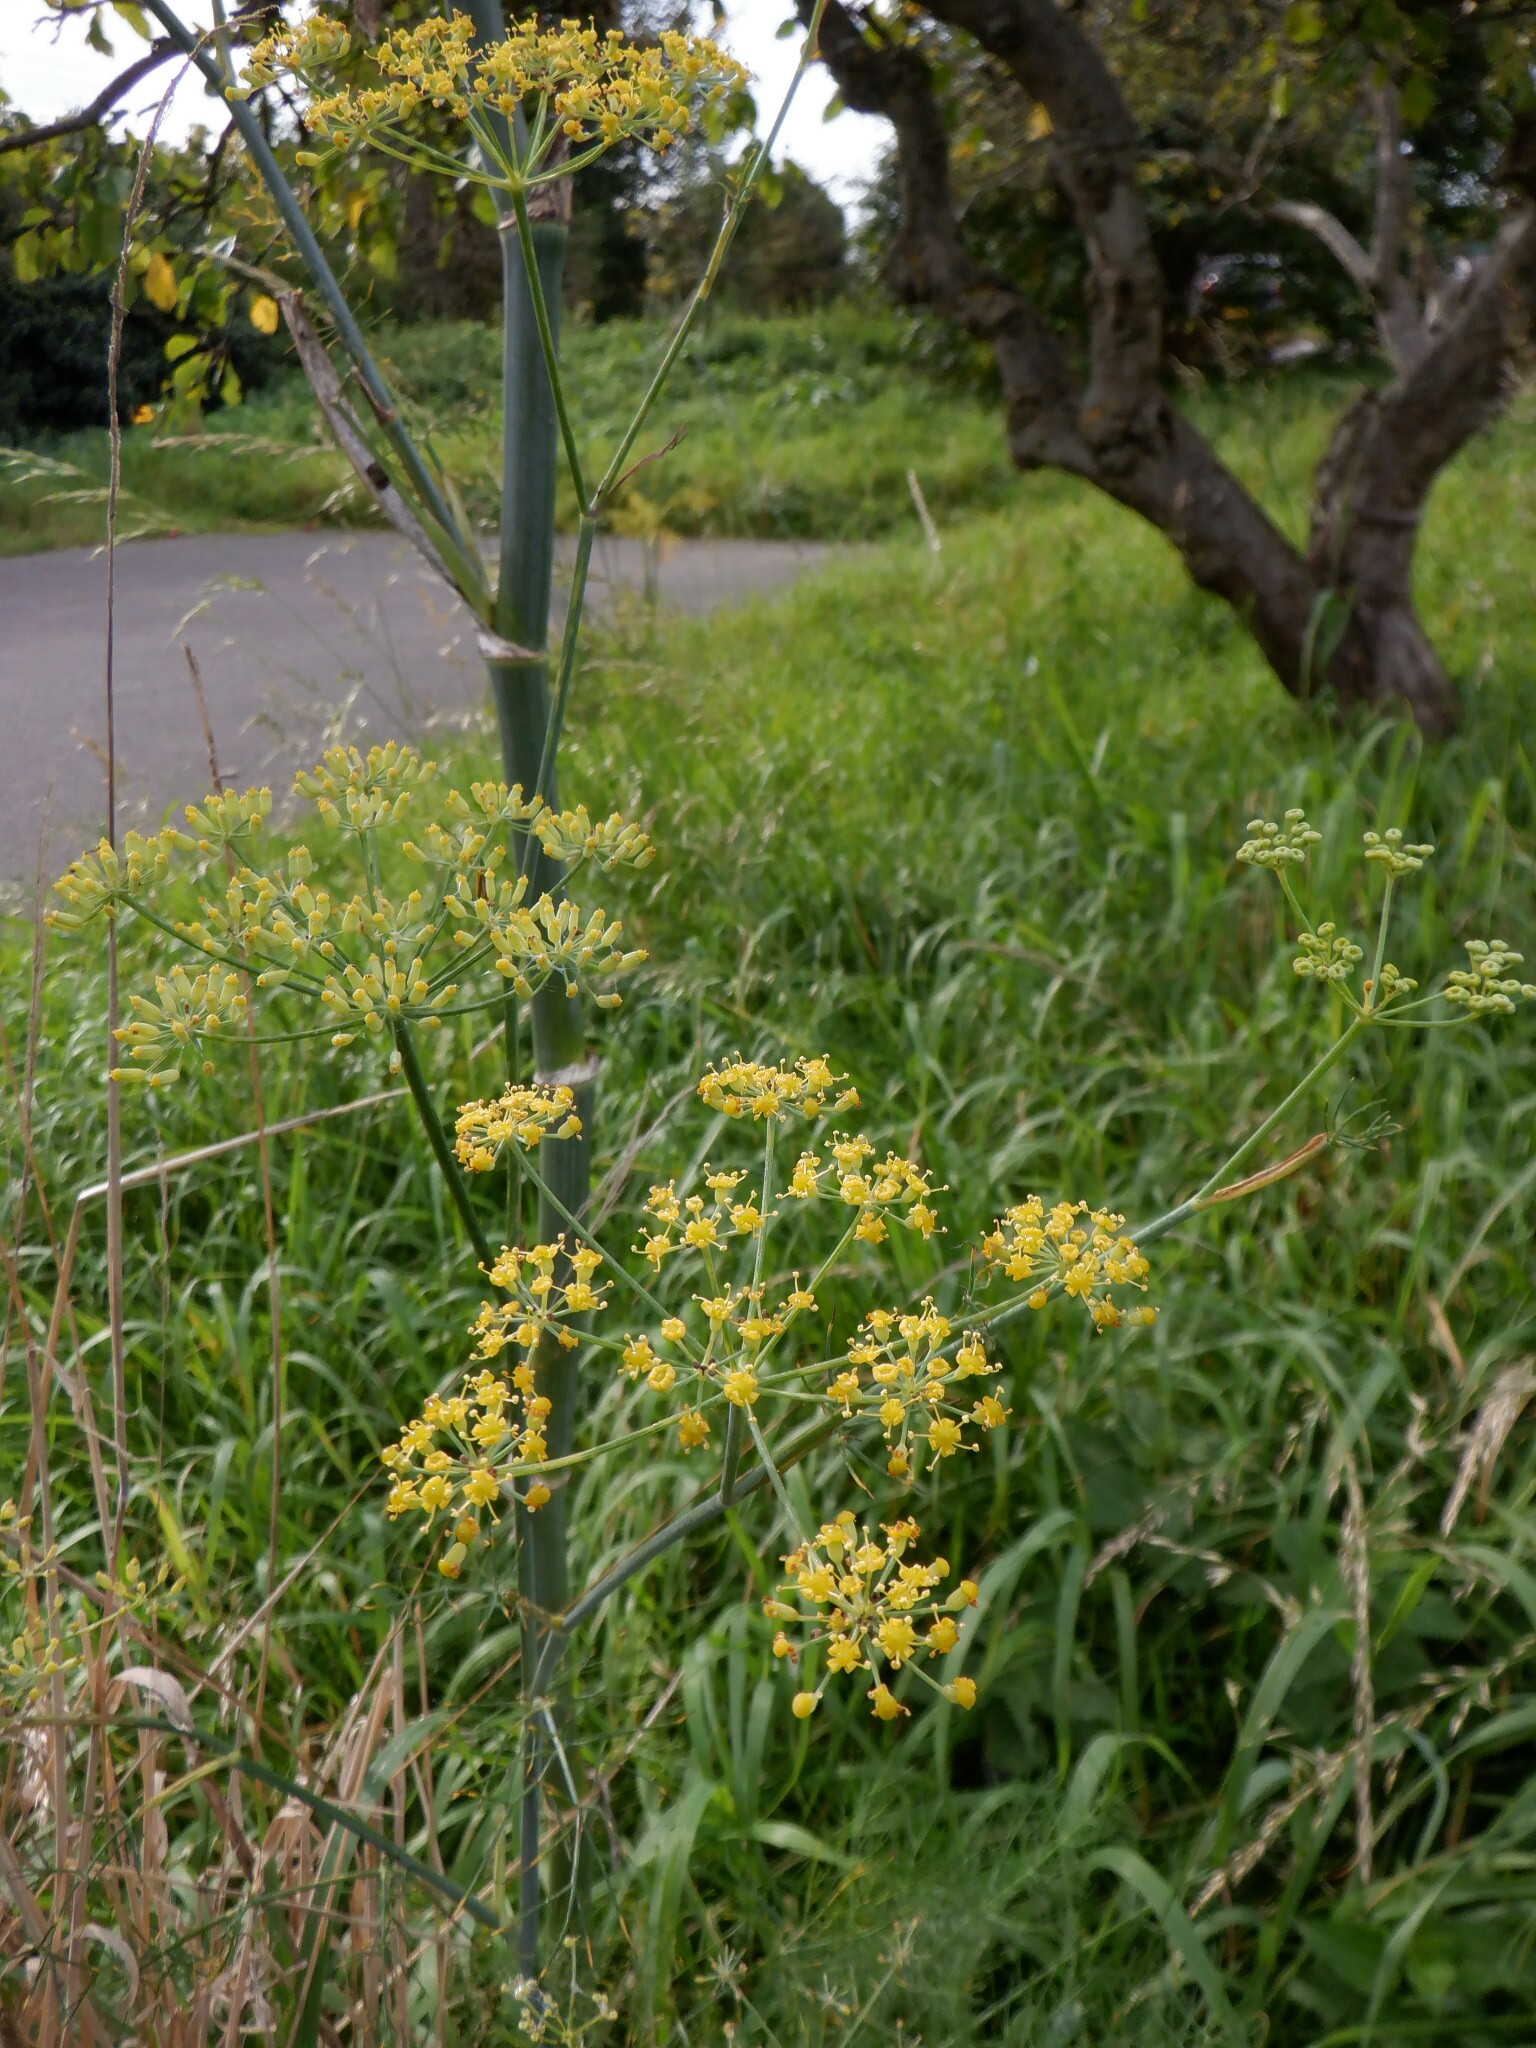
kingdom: Plantae
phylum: Tracheophyta
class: Magnoliopsida
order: Apiales
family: Apiaceae
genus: Foeniculum
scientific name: Foeniculum vulgare
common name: Fennel
